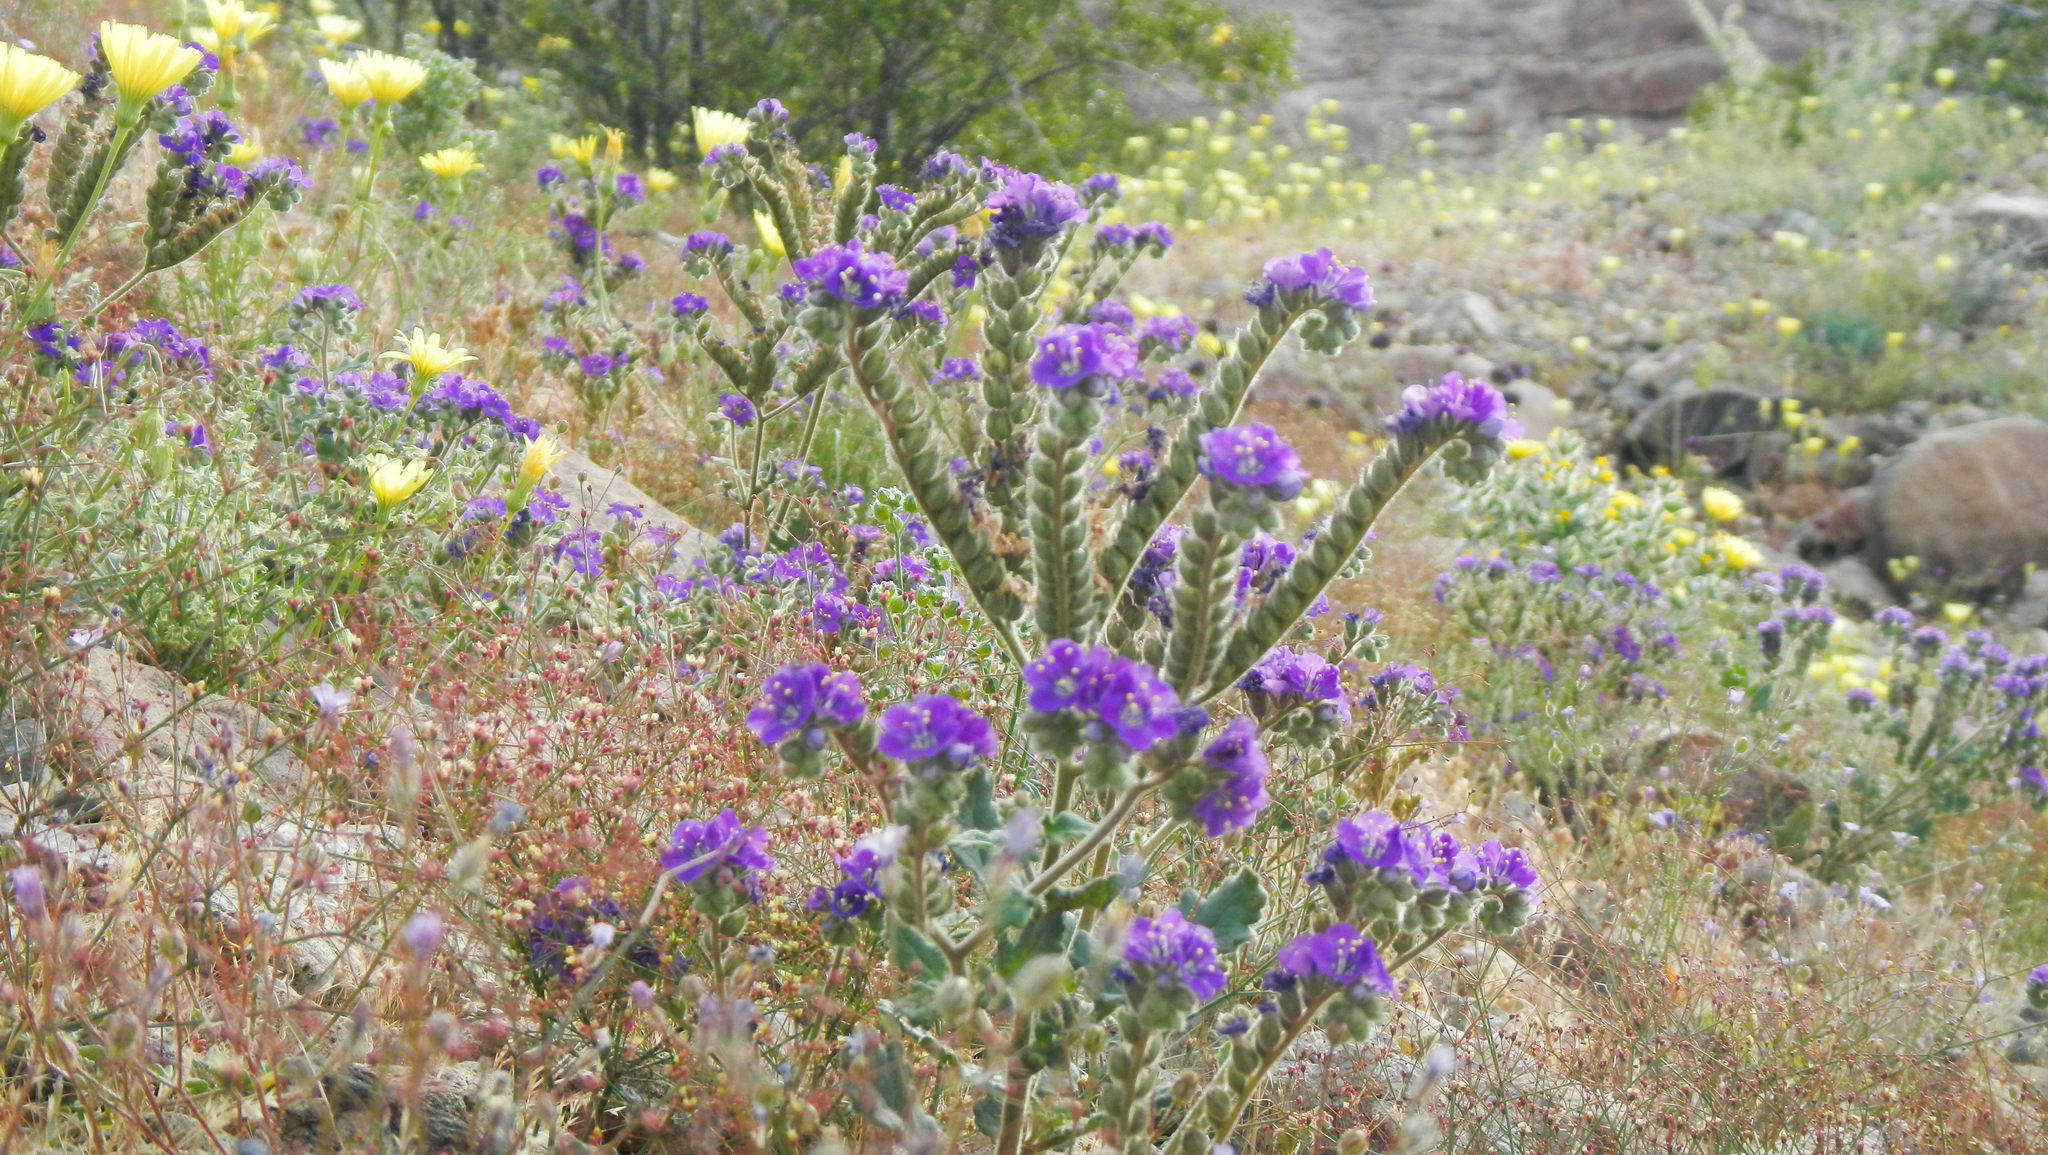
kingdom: Plantae
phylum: Tracheophyta
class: Magnoliopsida
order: Boraginales
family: Hydrophyllaceae
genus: Phacelia
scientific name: Phacelia crenulata
